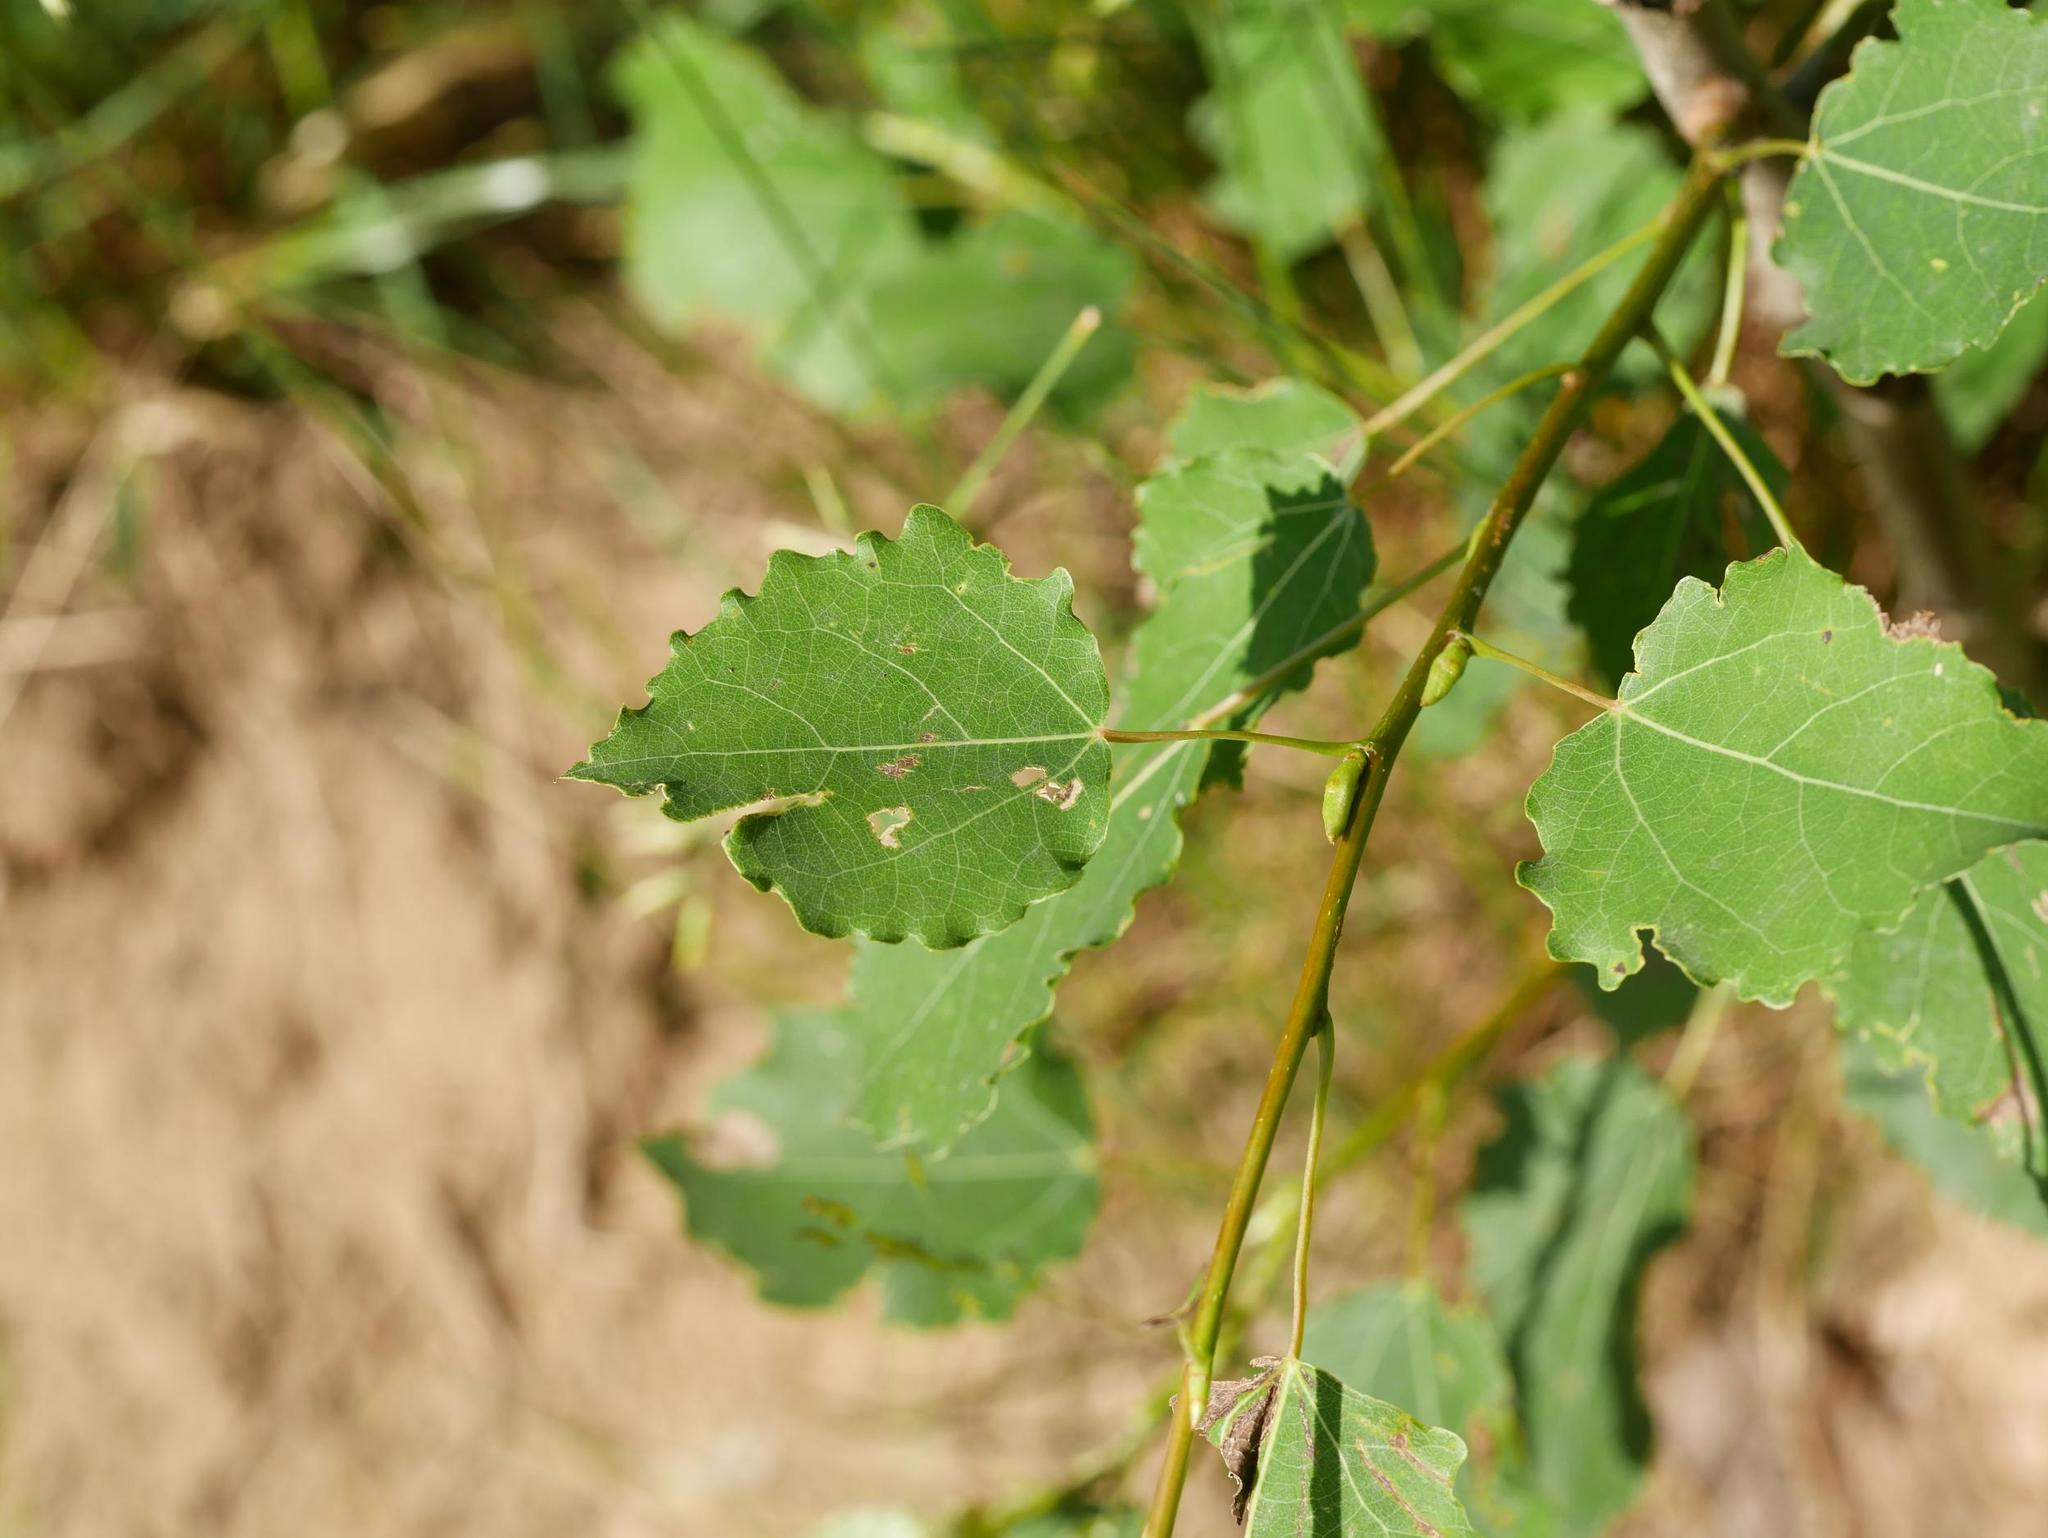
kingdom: Plantae
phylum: Tracheophyta
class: Magnoliopsida
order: Malpighiales
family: Salicaceae
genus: Populus
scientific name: Populus tremula
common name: European aspen
